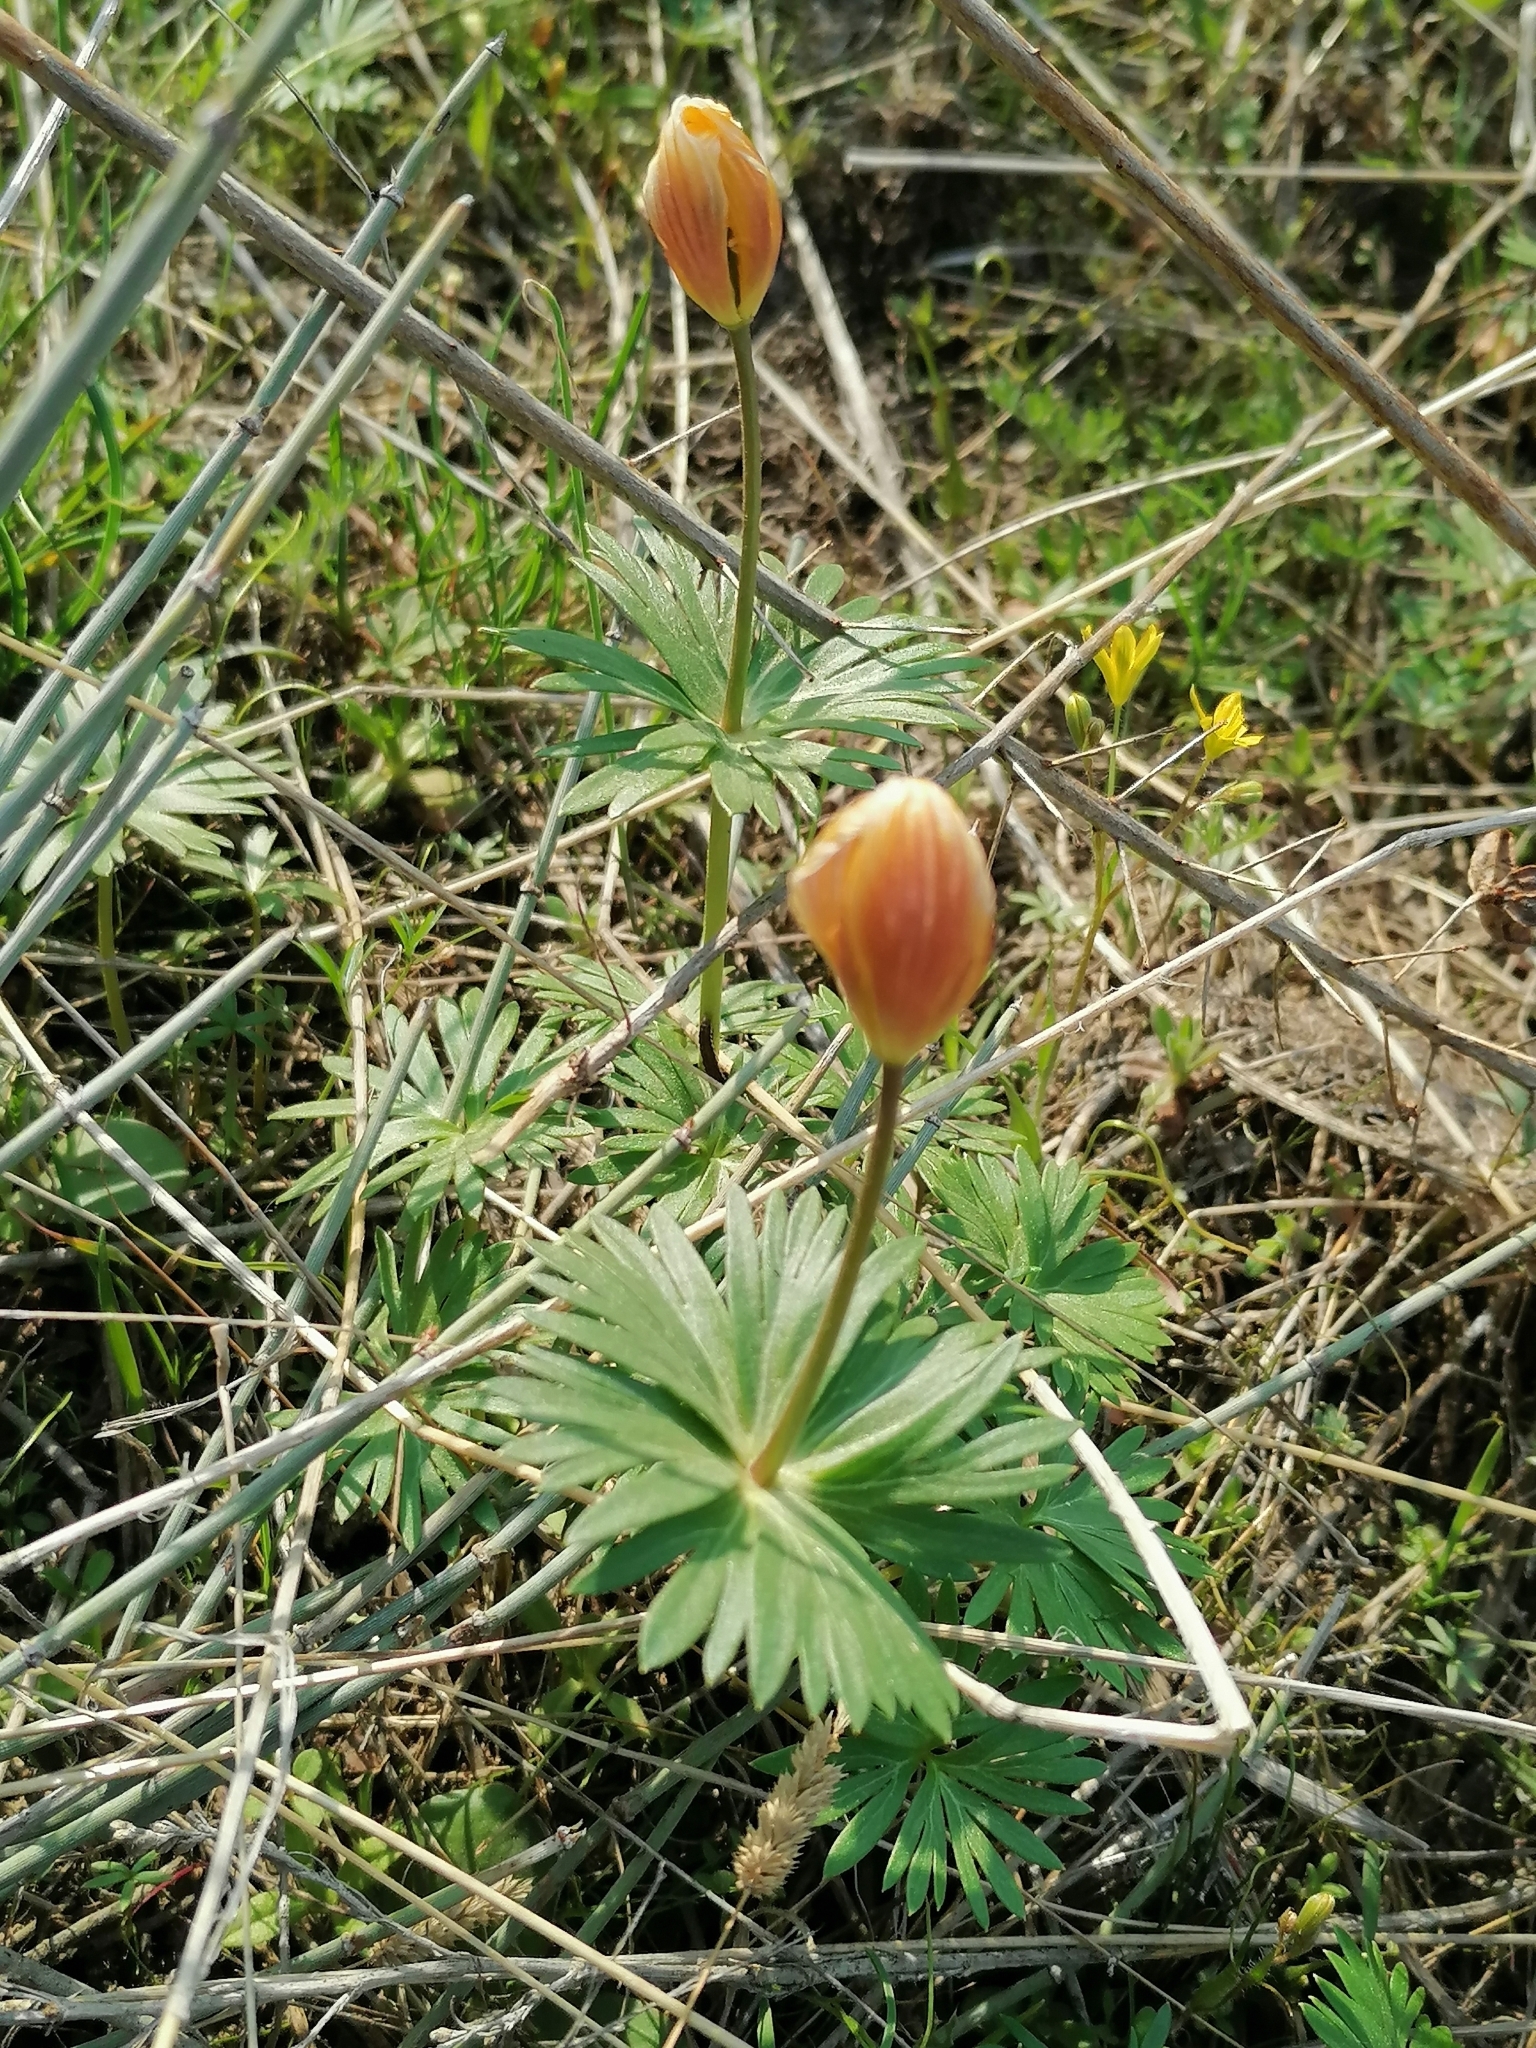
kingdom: Plantae
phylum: Tracheophyta
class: Magnoliopsida
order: Ranunculales
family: Ranunculaceae
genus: Eranthis
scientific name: Eranthis longistipitata
